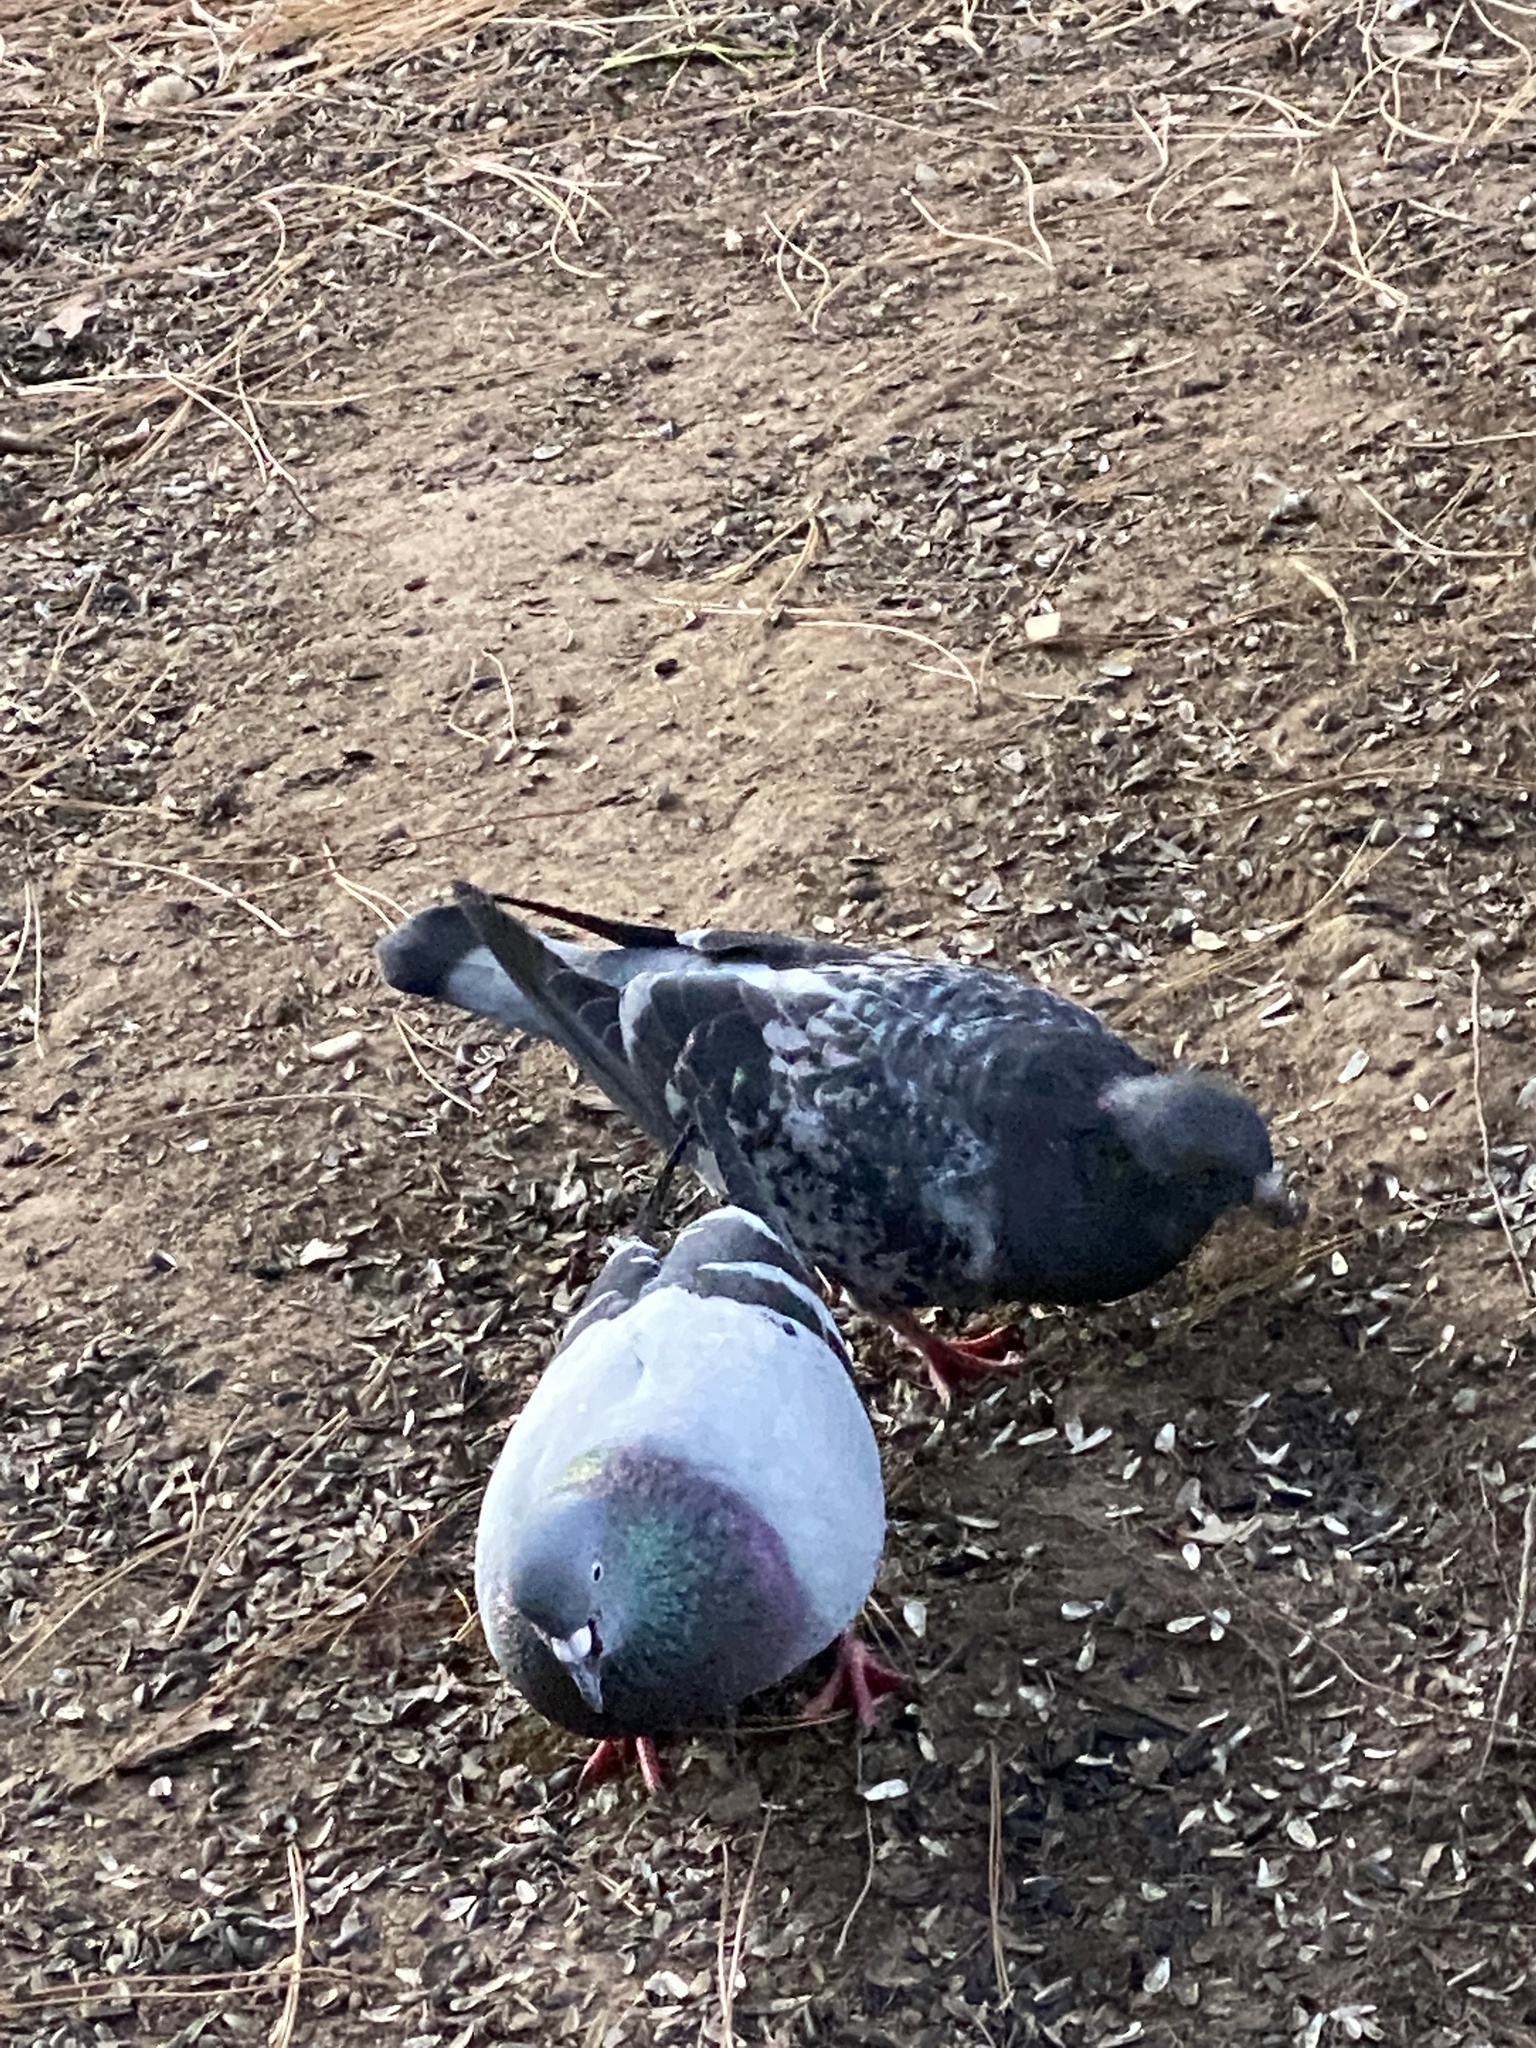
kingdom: Animalia
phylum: Chordata
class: Aves
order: Columbiformes
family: Columbidae
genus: Columba
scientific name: Columba livia
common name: Rock pigeon
